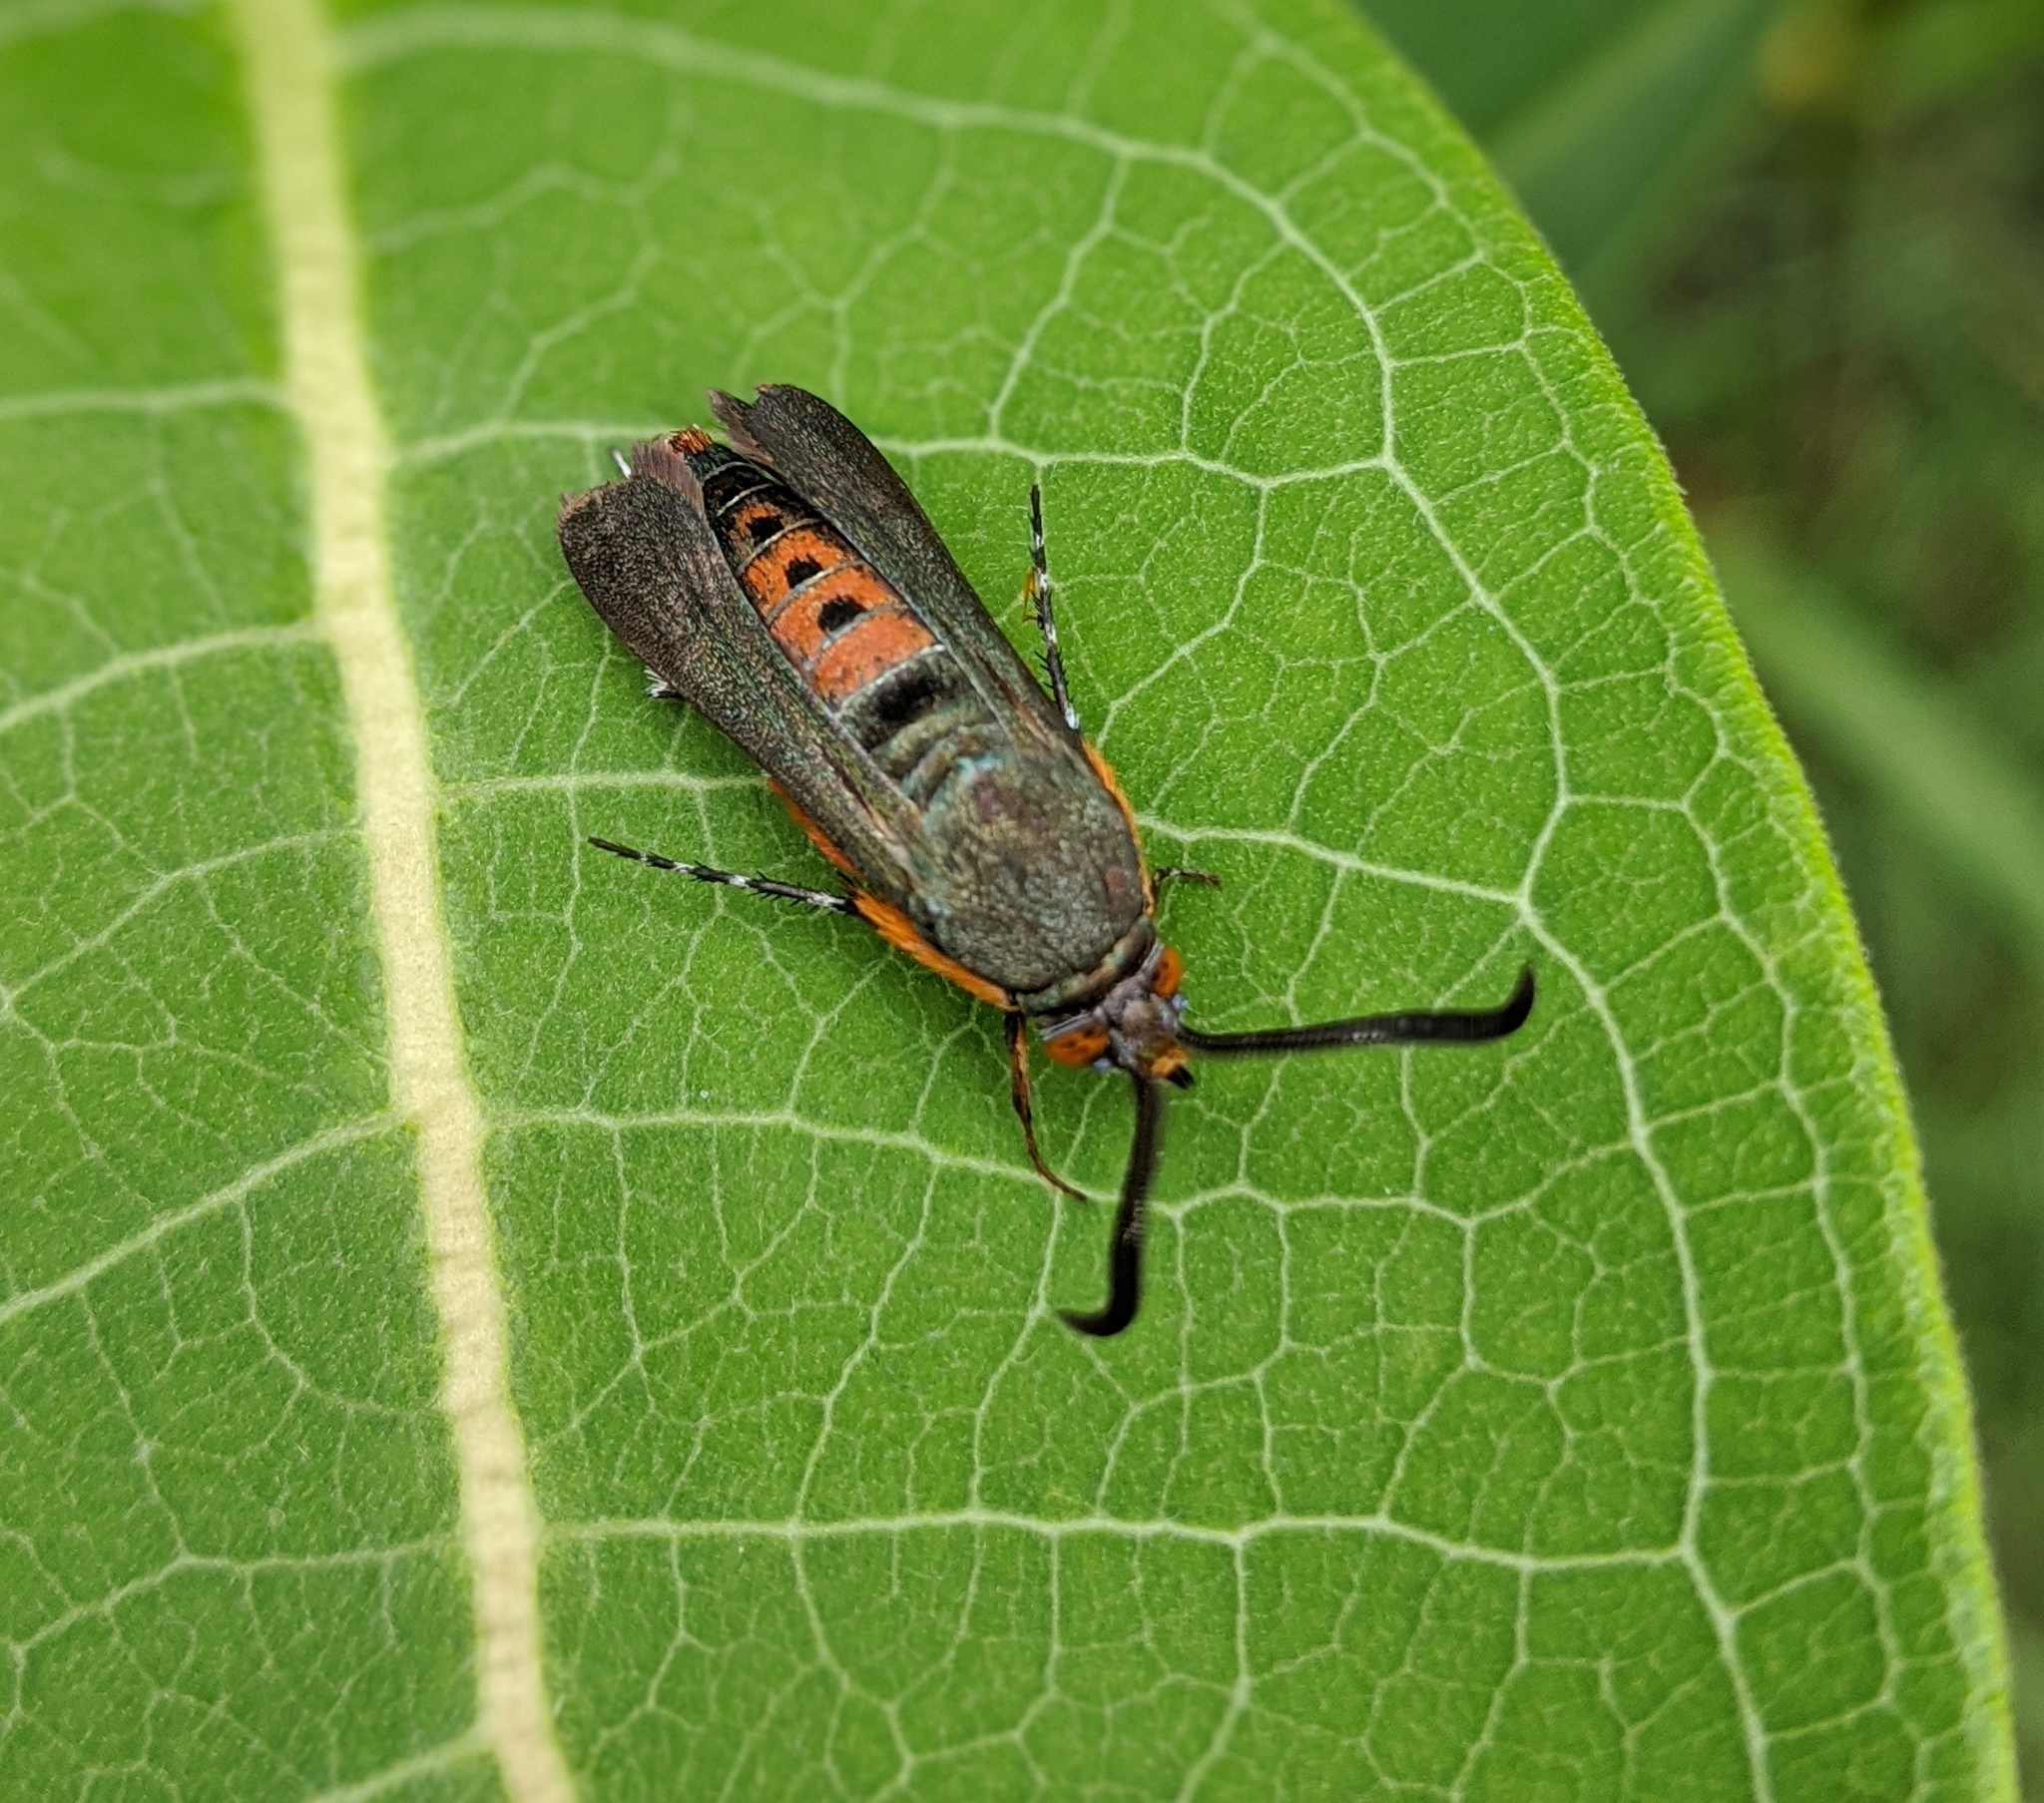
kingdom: Animalia
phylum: Arthropoda
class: Insecta
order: Lepidoptera
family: Sesiidae
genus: Eichlinia
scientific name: Eichlinia cucurbitae
